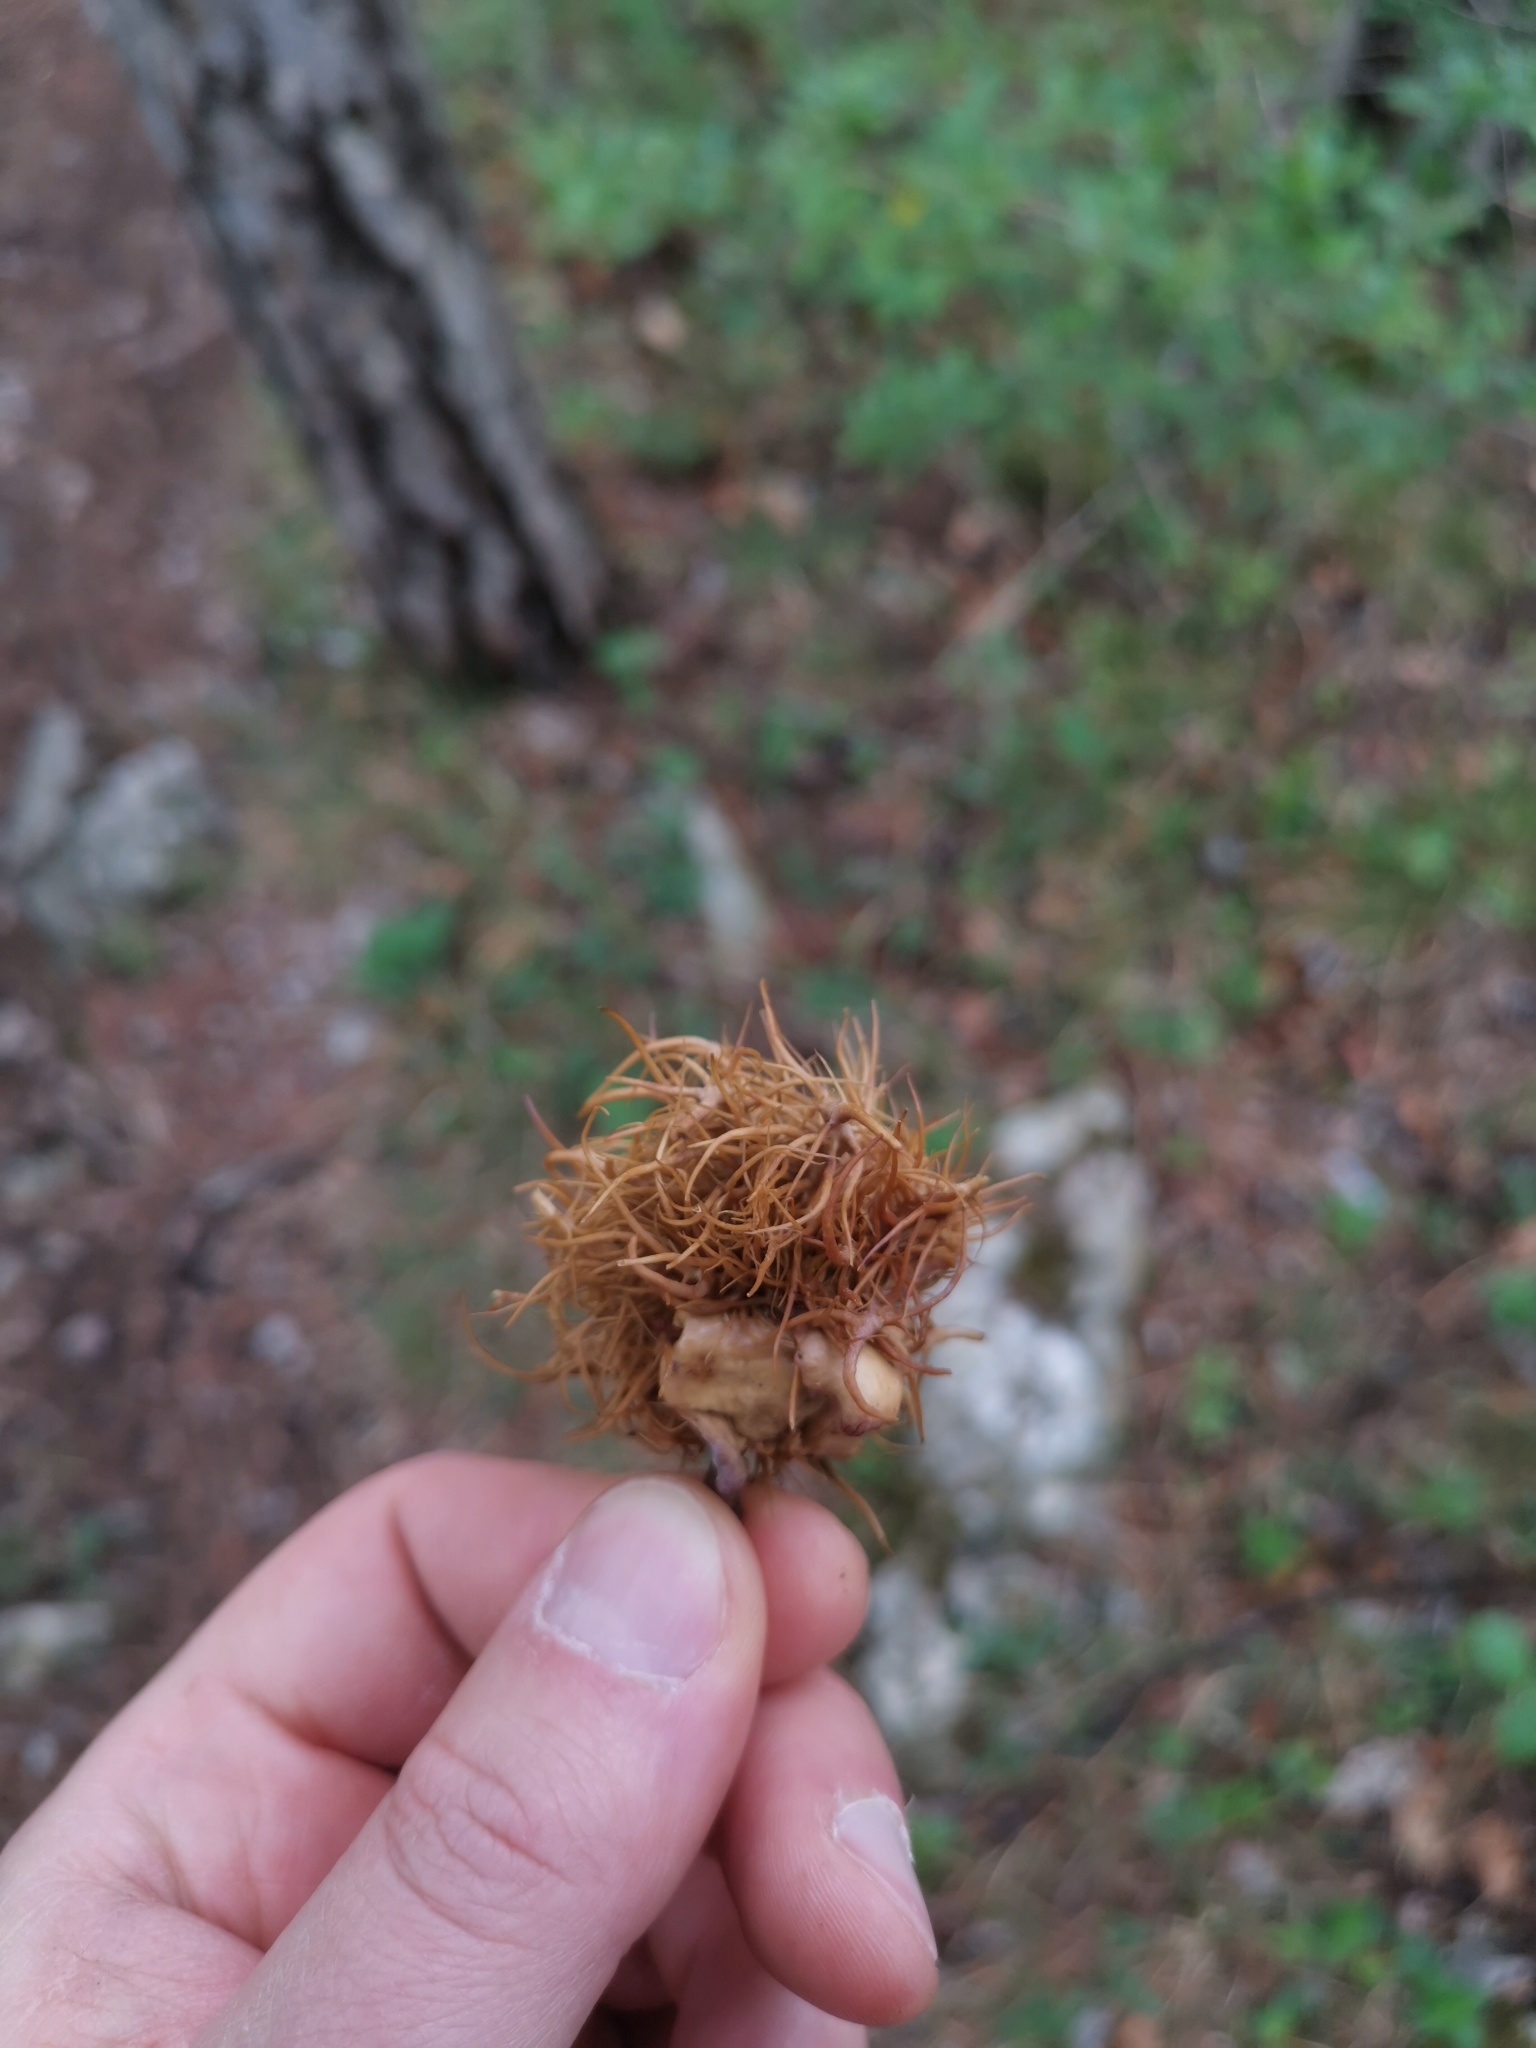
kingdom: Animalia
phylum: Arthropoda
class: Insecta
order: Hymenoptera
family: Cynipidae
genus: Andricus
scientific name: Andricus caputmedusae
